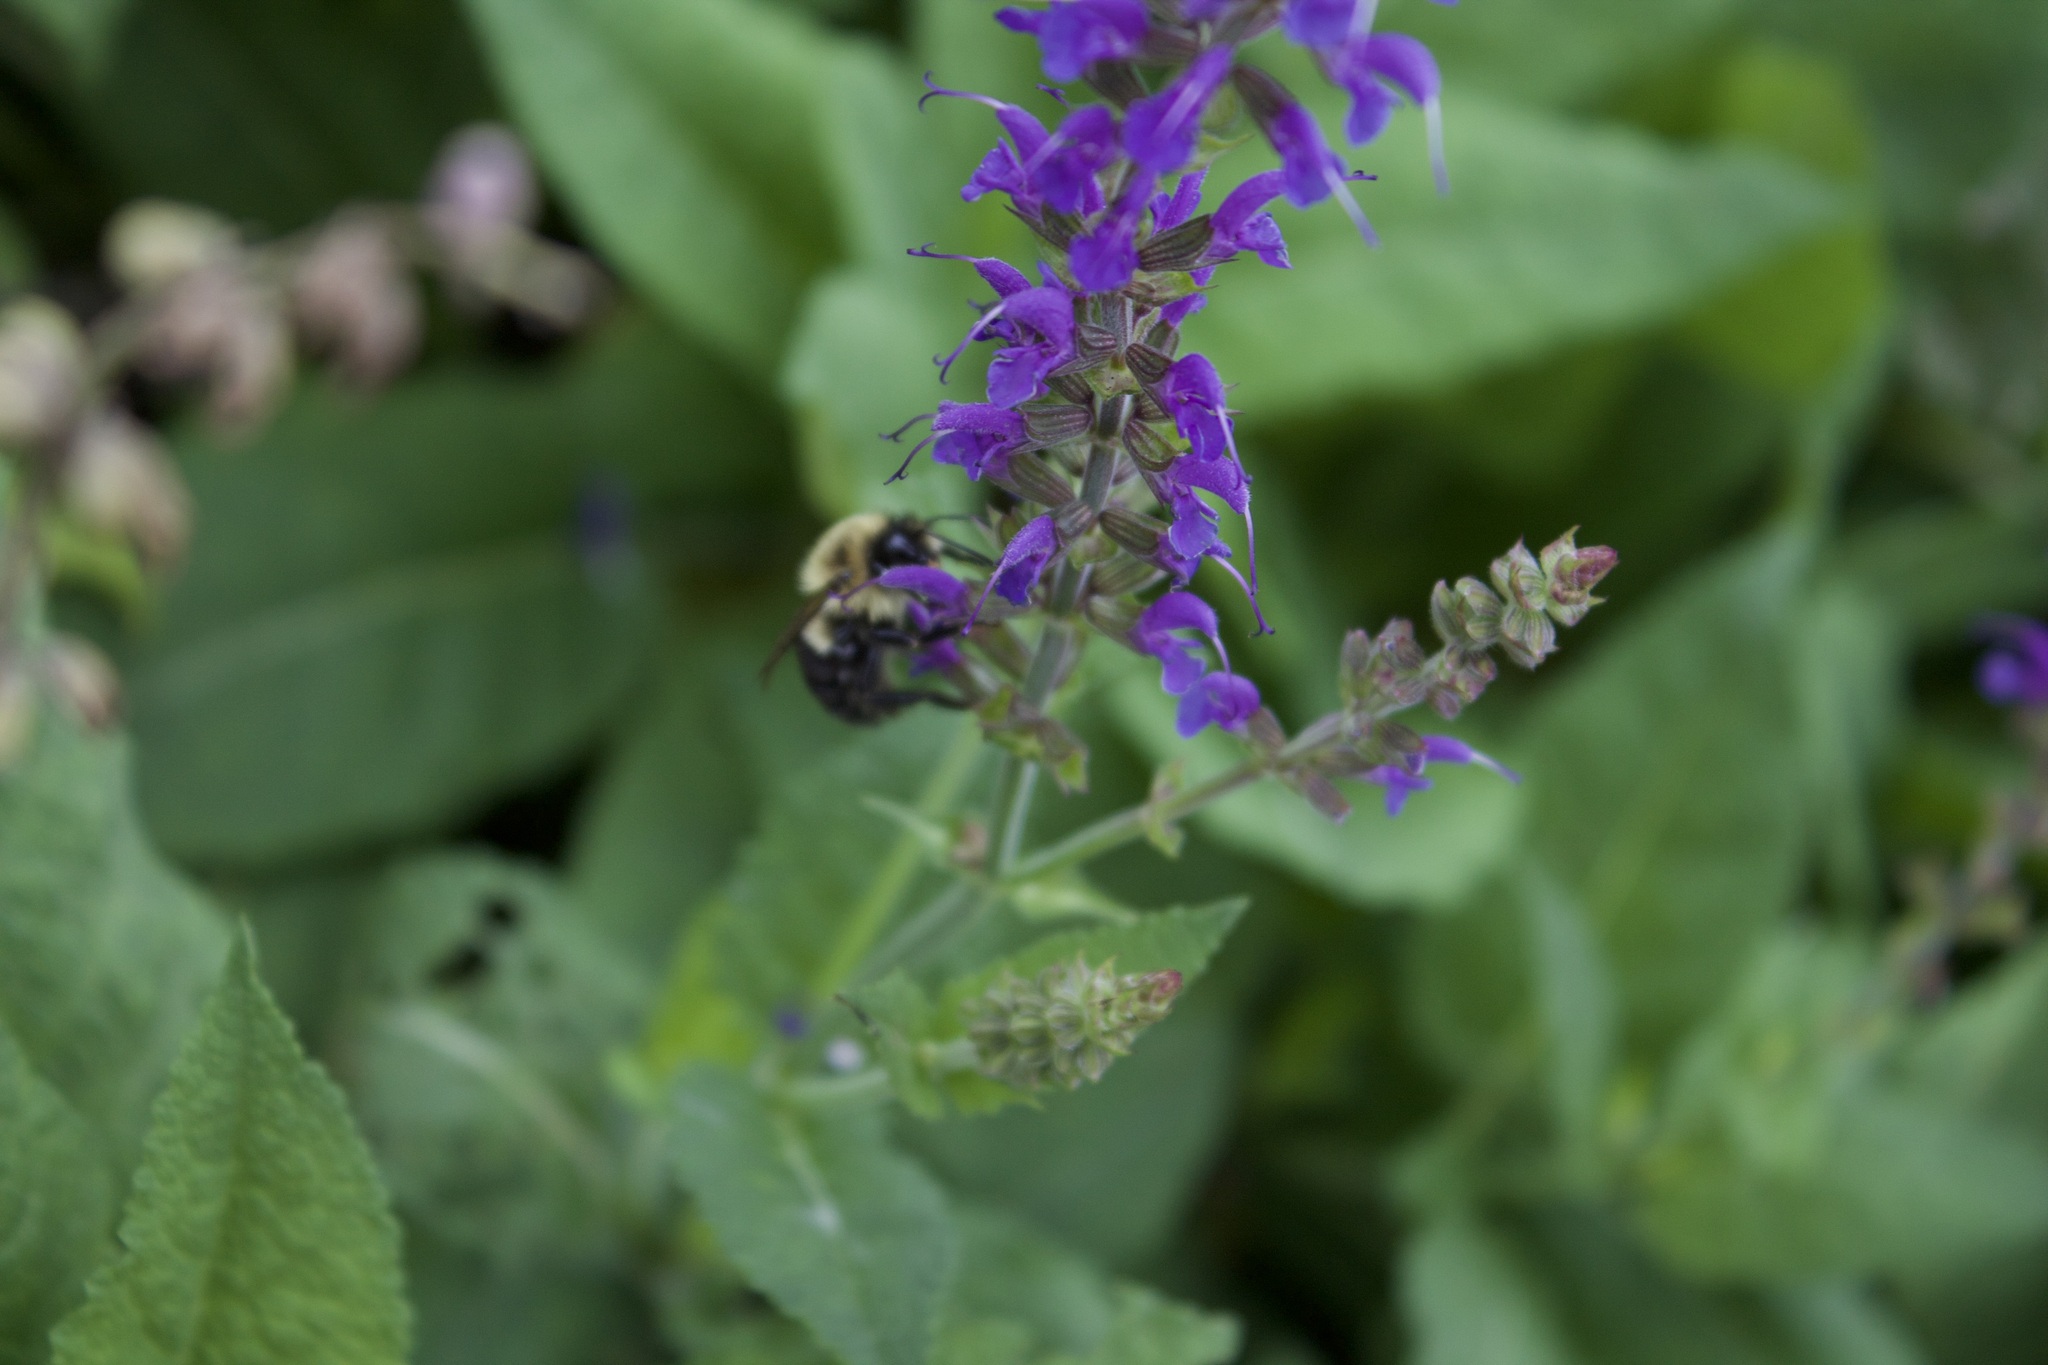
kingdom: Animalia
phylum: Arthropoda
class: Insecta
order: Hymenoptera
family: Apidae
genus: Bombus
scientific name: Bombus impatiens
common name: Common eastern bumble bee
